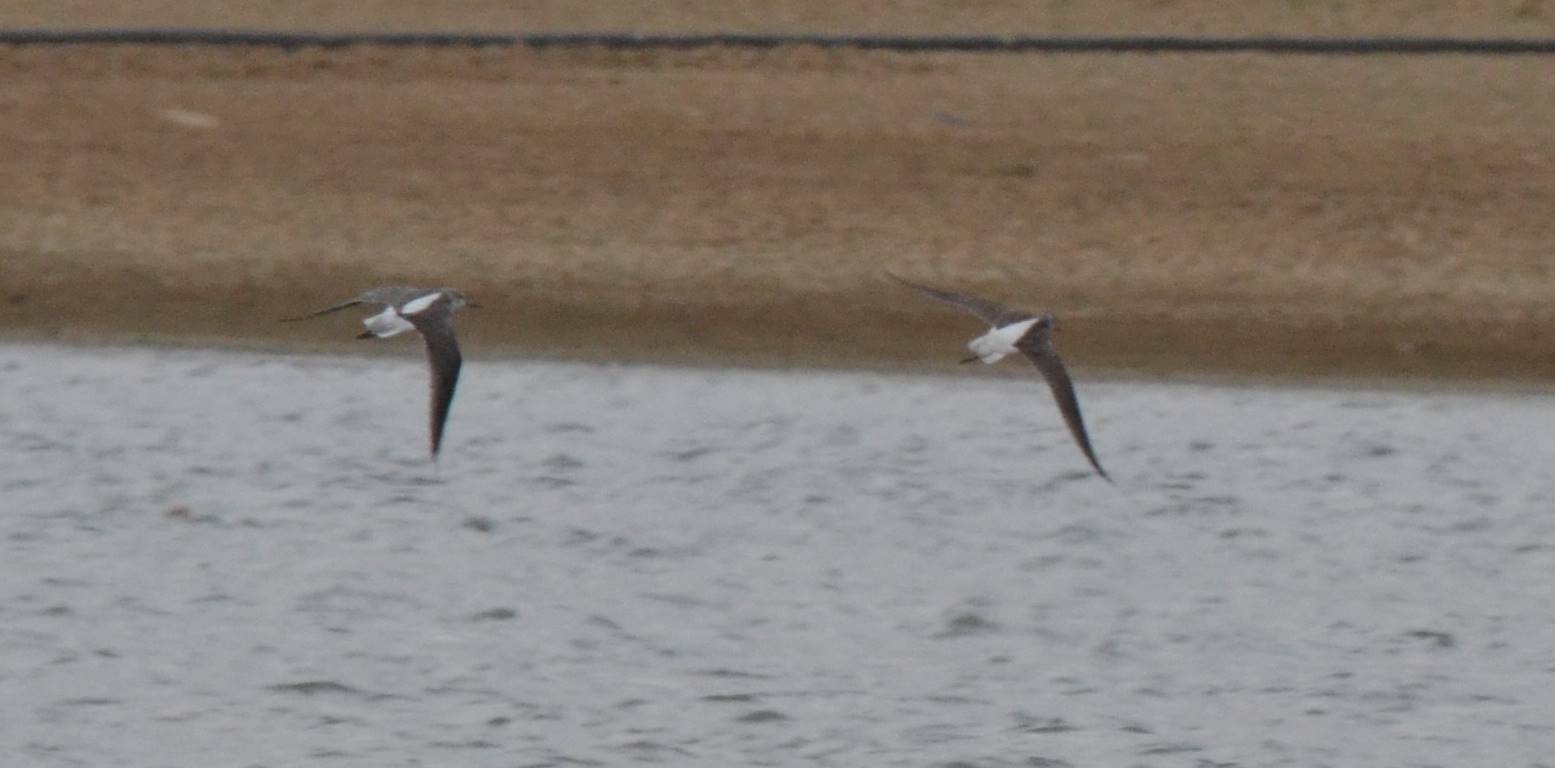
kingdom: Animalia
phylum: Chordata
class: Aves
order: Charadriiformes
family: Scolopacidae
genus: Tringa
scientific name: Tringa nebularia
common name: Common greenshank
